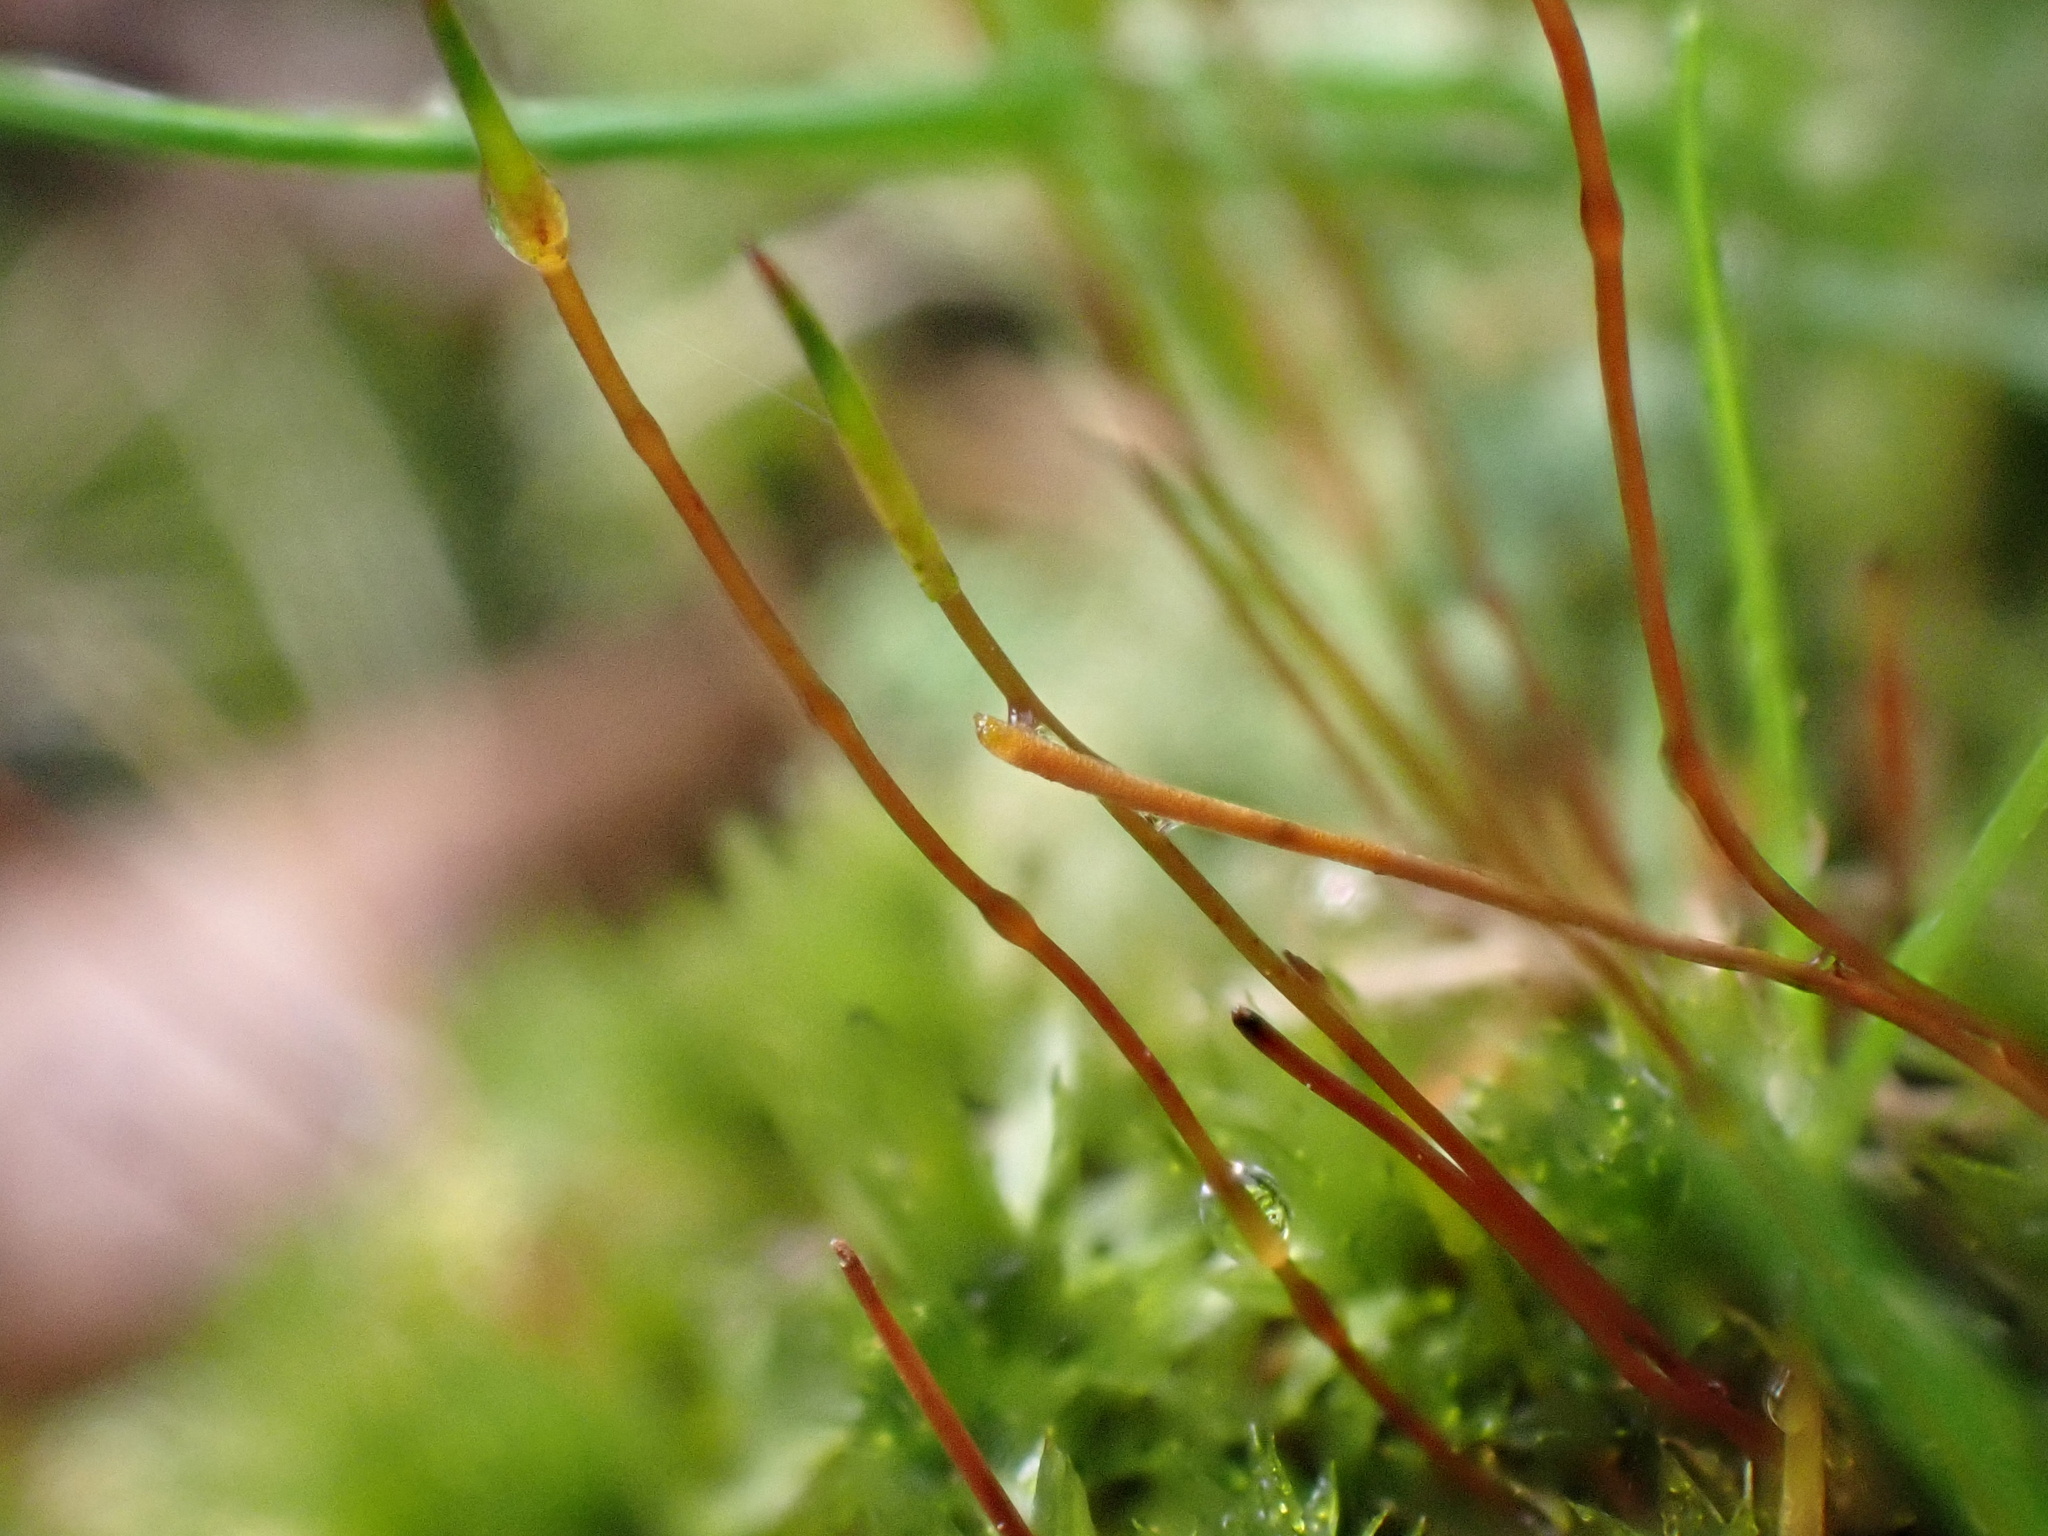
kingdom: Plantae
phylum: Bryophyta
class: Bryopsida
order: Bryales
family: Mniaceae
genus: Pohlia
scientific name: Pohlia nutans
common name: Nodding thread-moss
